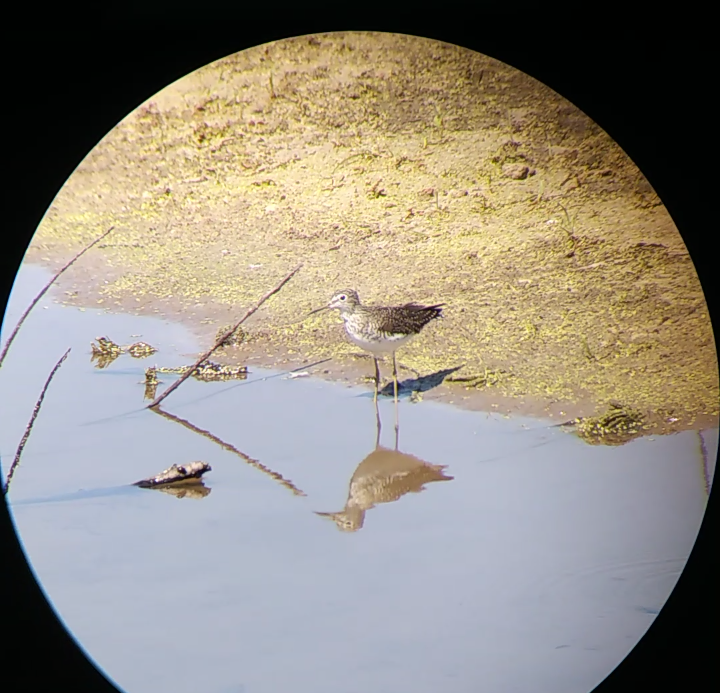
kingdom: Animalia
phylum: Chordata
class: Aves
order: Charadriiformes
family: Scolopacidae
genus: Tringa
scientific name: Tringa solitaria
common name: Solitary sandpiper
